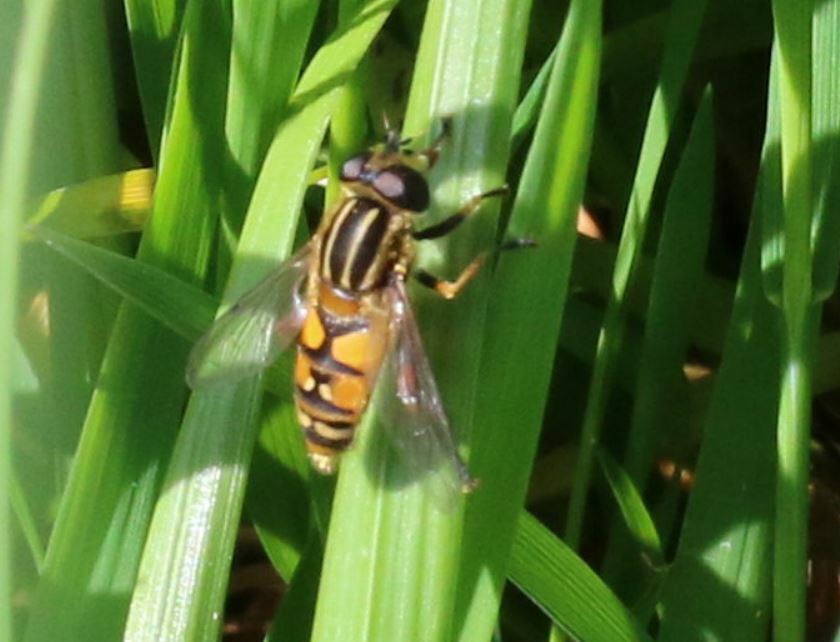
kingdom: Animalia
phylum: Arthropoda
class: Insecta
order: Diptera
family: Syrphidae
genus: Helophilus
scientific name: Helophilus pendulus
